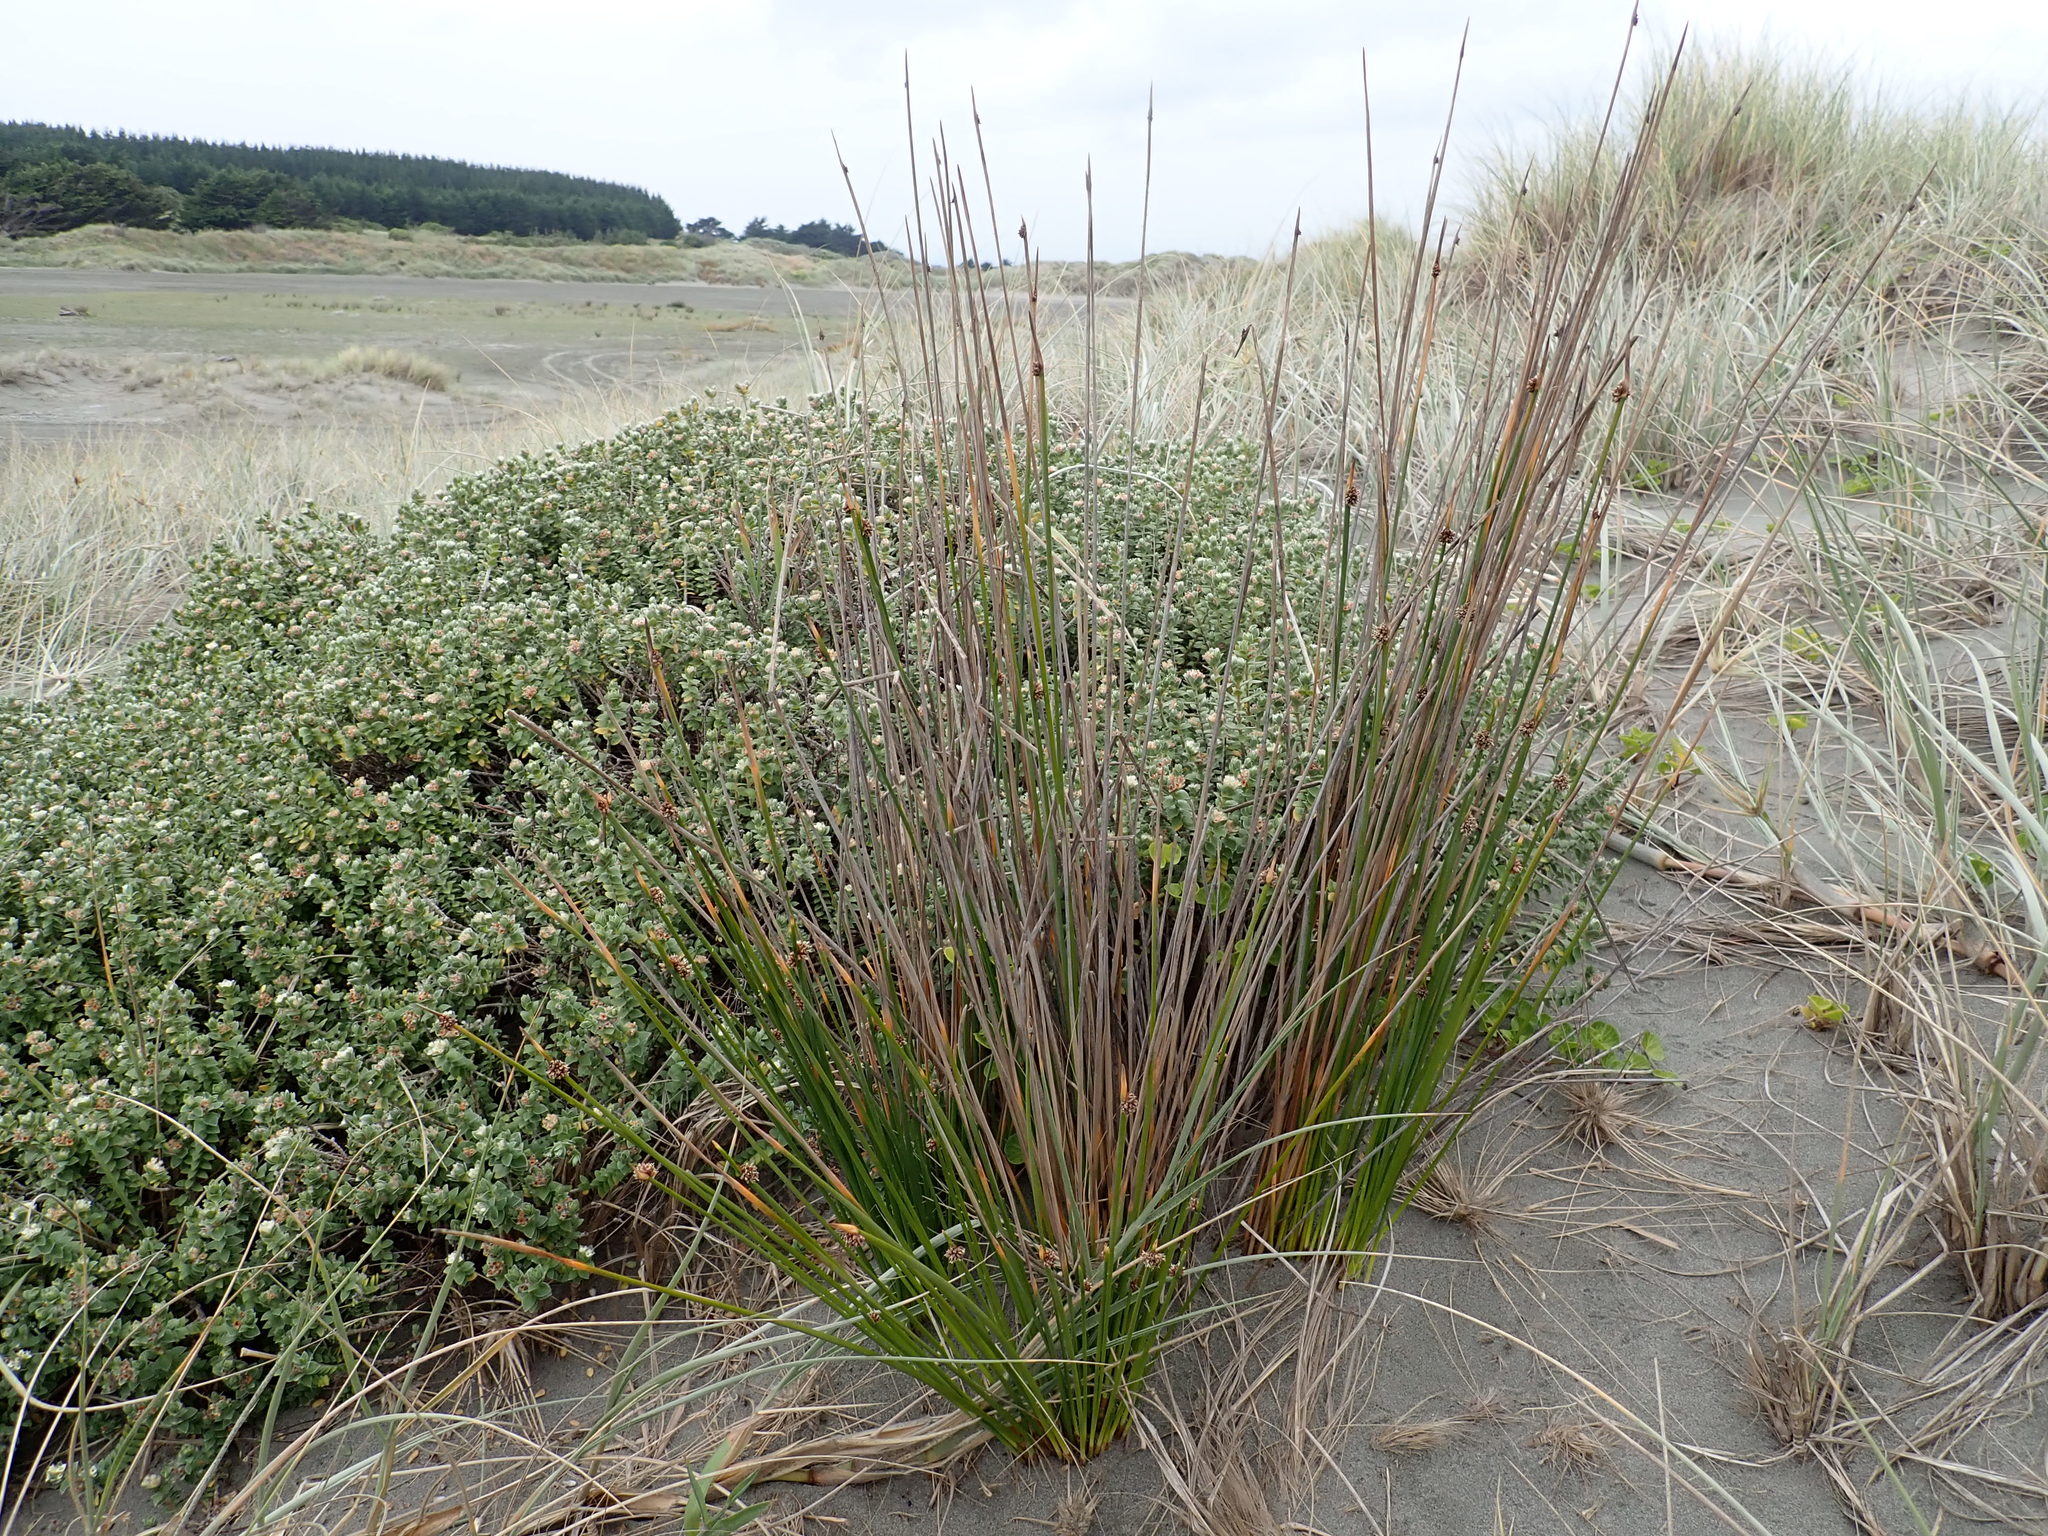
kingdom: Plantae
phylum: Tracheophyta
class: Liliopsida
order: Poales
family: Cyperaceae
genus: Ficinia
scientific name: Ficinia nodosa
